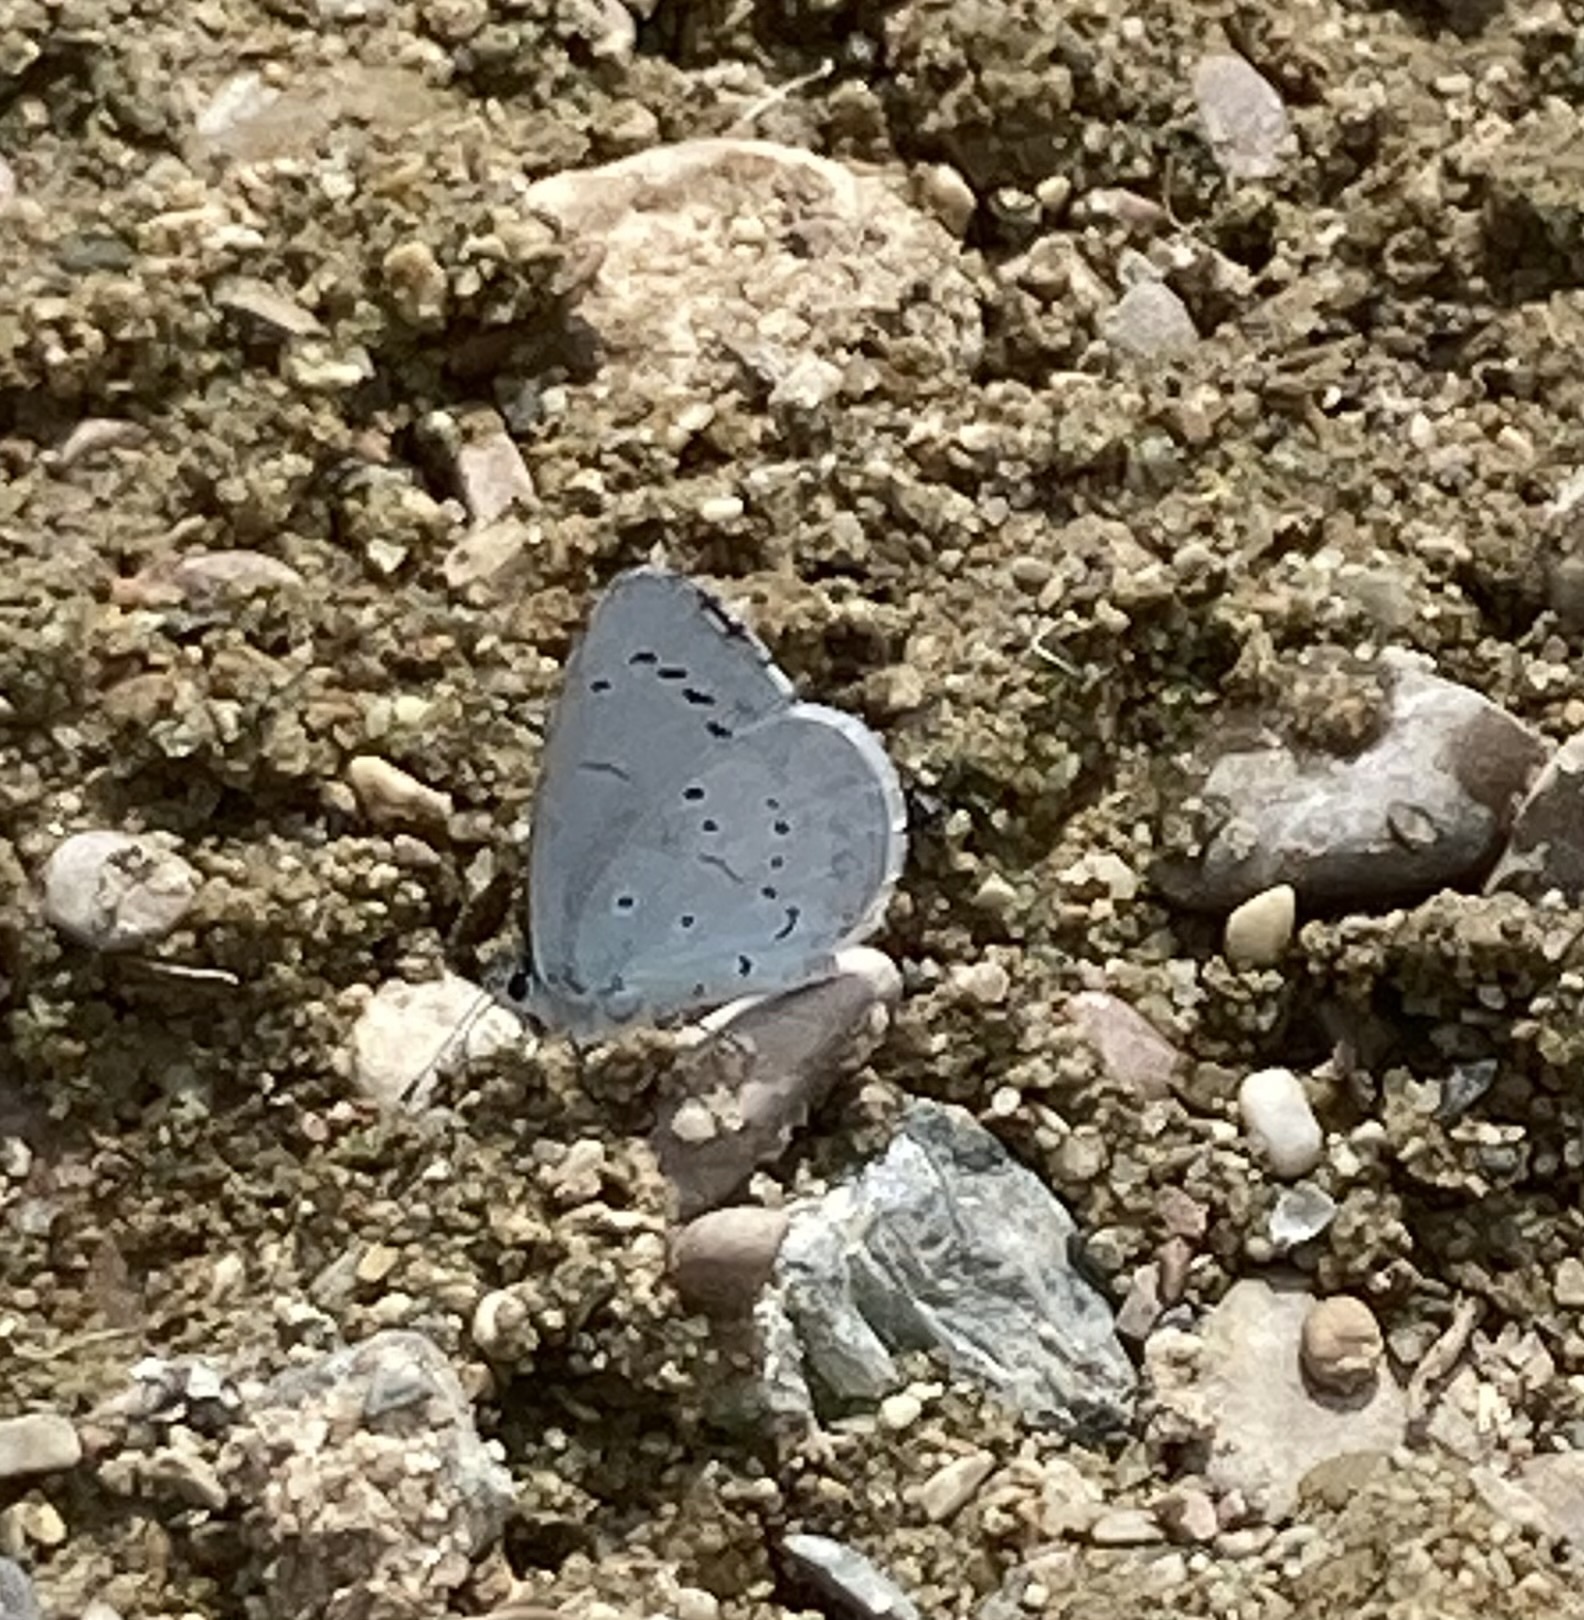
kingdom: Animalia
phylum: Arthropoda
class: Insecta
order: Lepidoptera
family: Lycaenidae
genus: Celastrina
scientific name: Celastrina argiolus
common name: Holly blue
